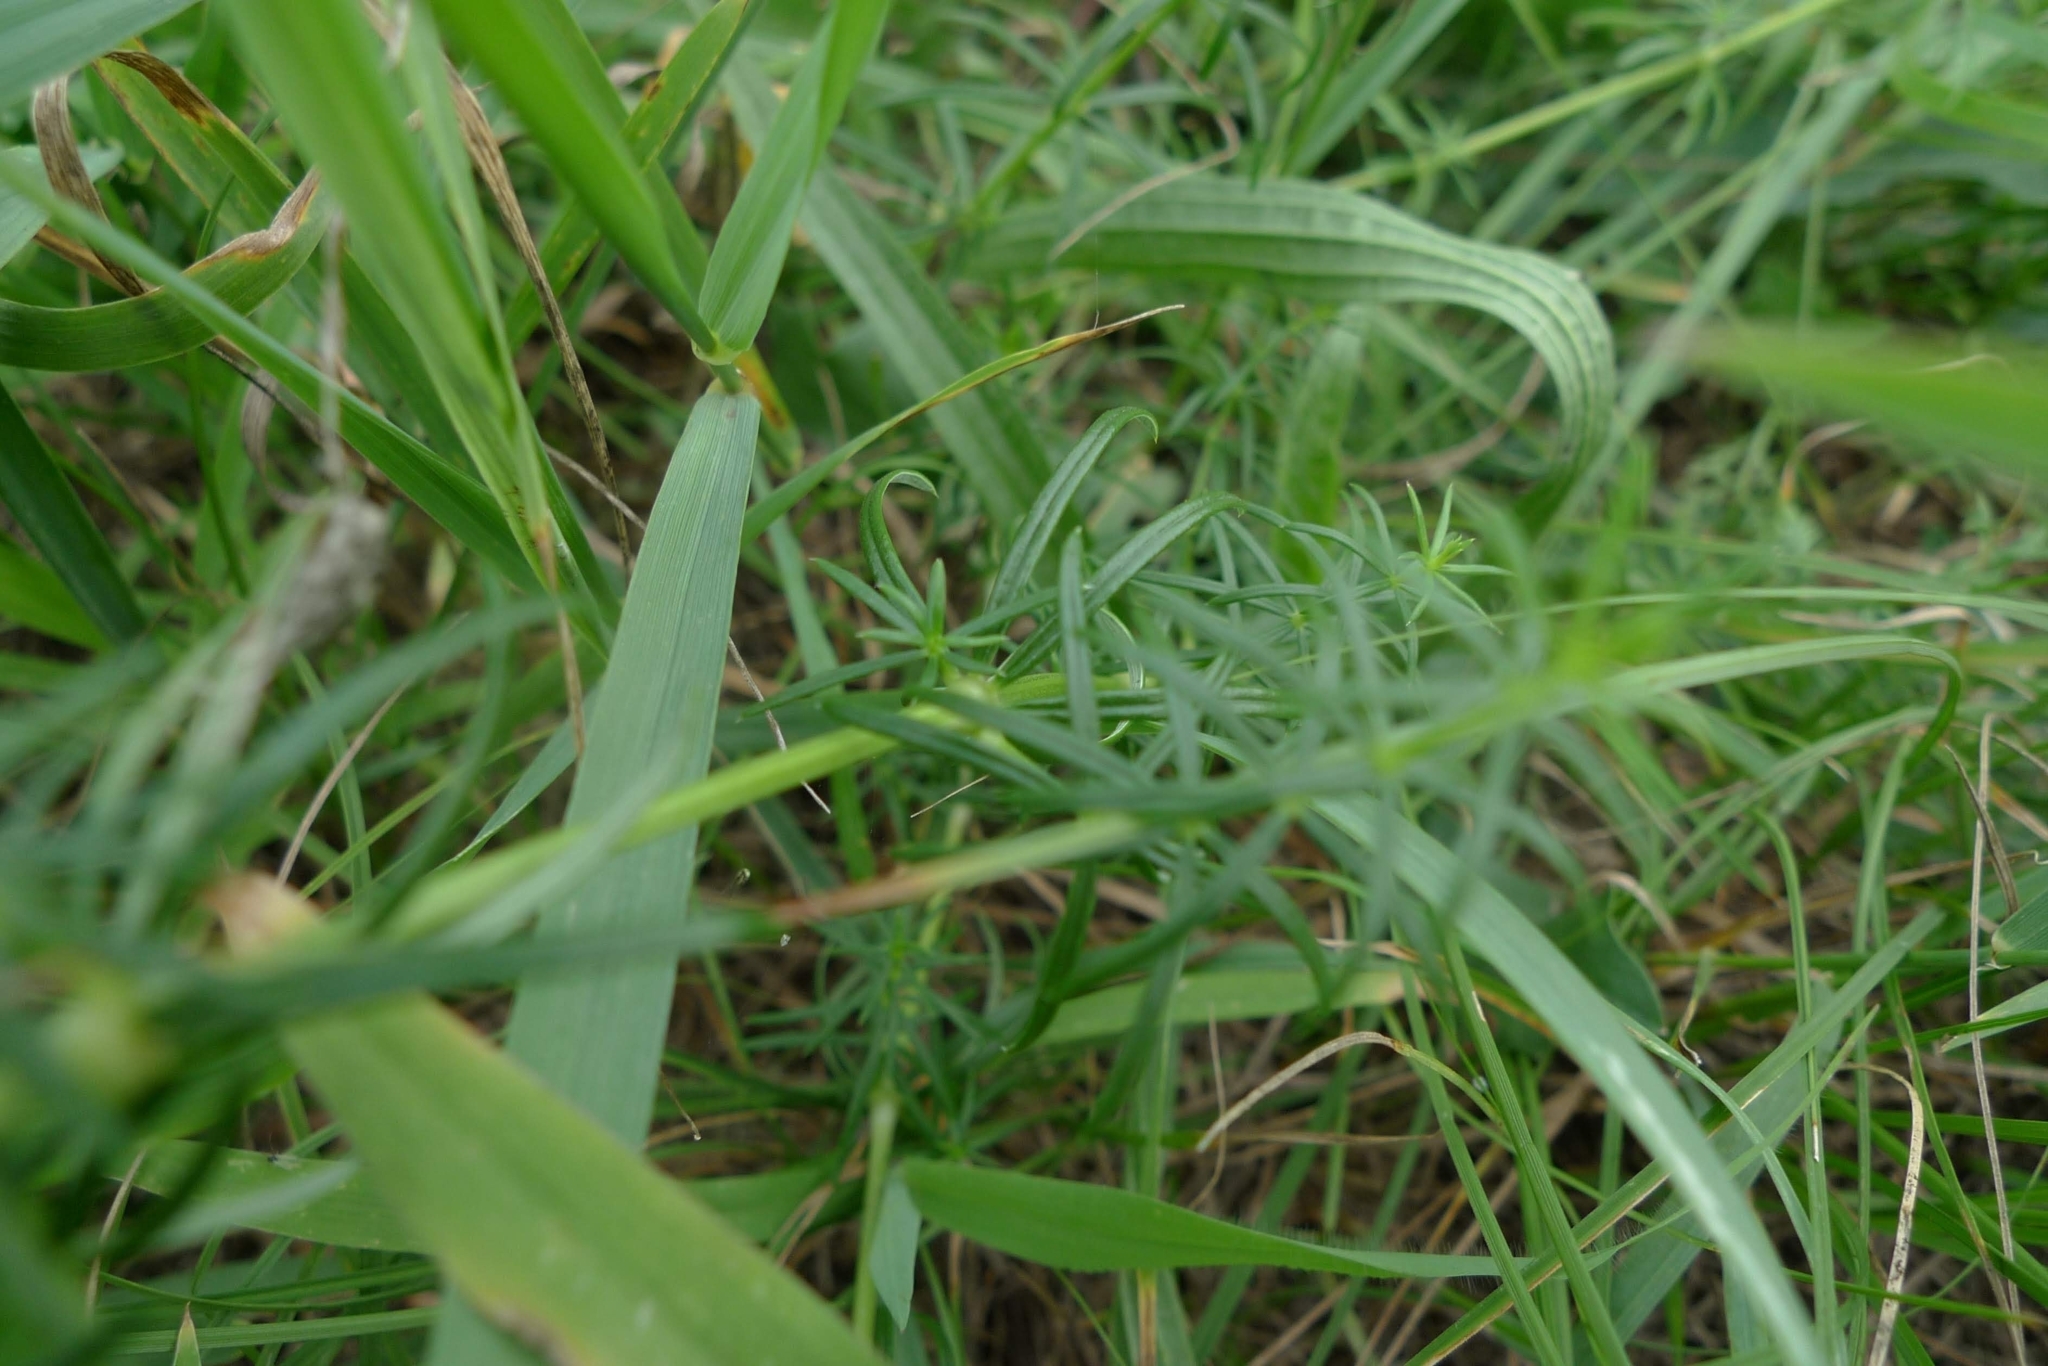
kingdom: Plantae
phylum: Tracheophyta
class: Magnoliopsida
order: Gentianales
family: Rubiaceae
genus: Galium
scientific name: Galium verum
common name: Lady's bedstraw
